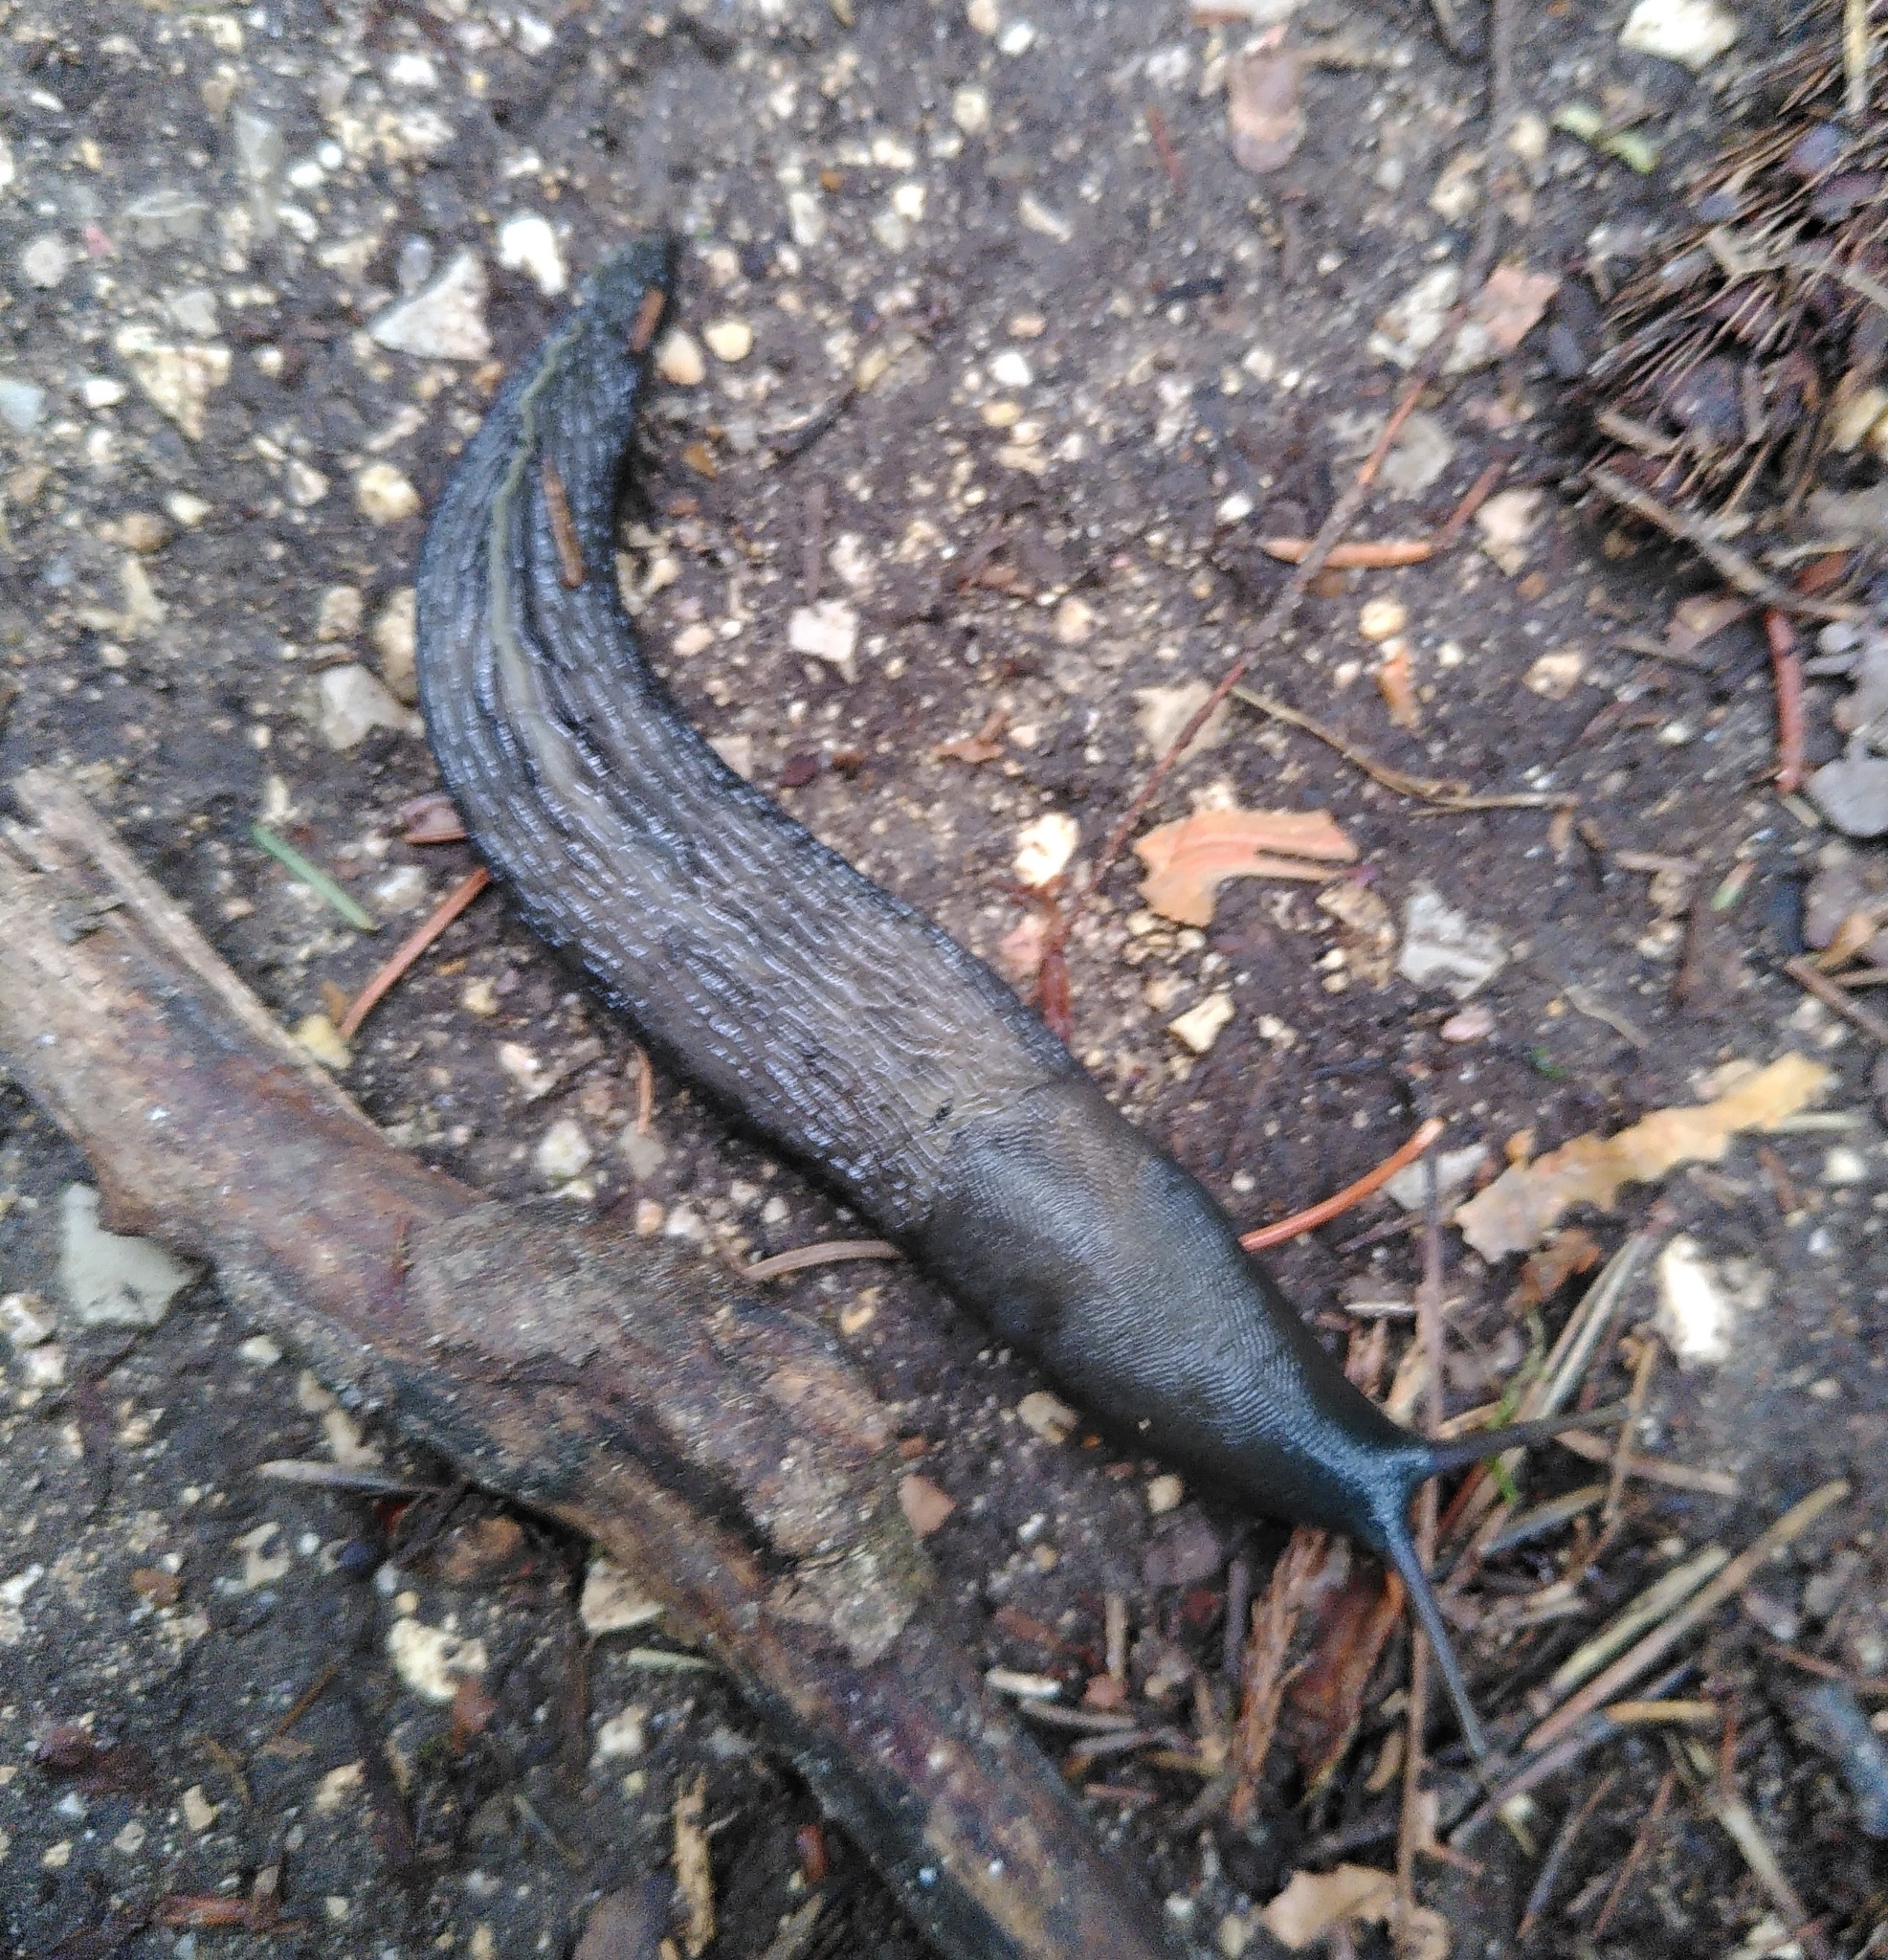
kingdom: Animalia
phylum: Mollusca
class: Gastropoda
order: Stylommatophora
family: Limacidae
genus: Limax
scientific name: Limax cinereoniger
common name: Ash-black slug
